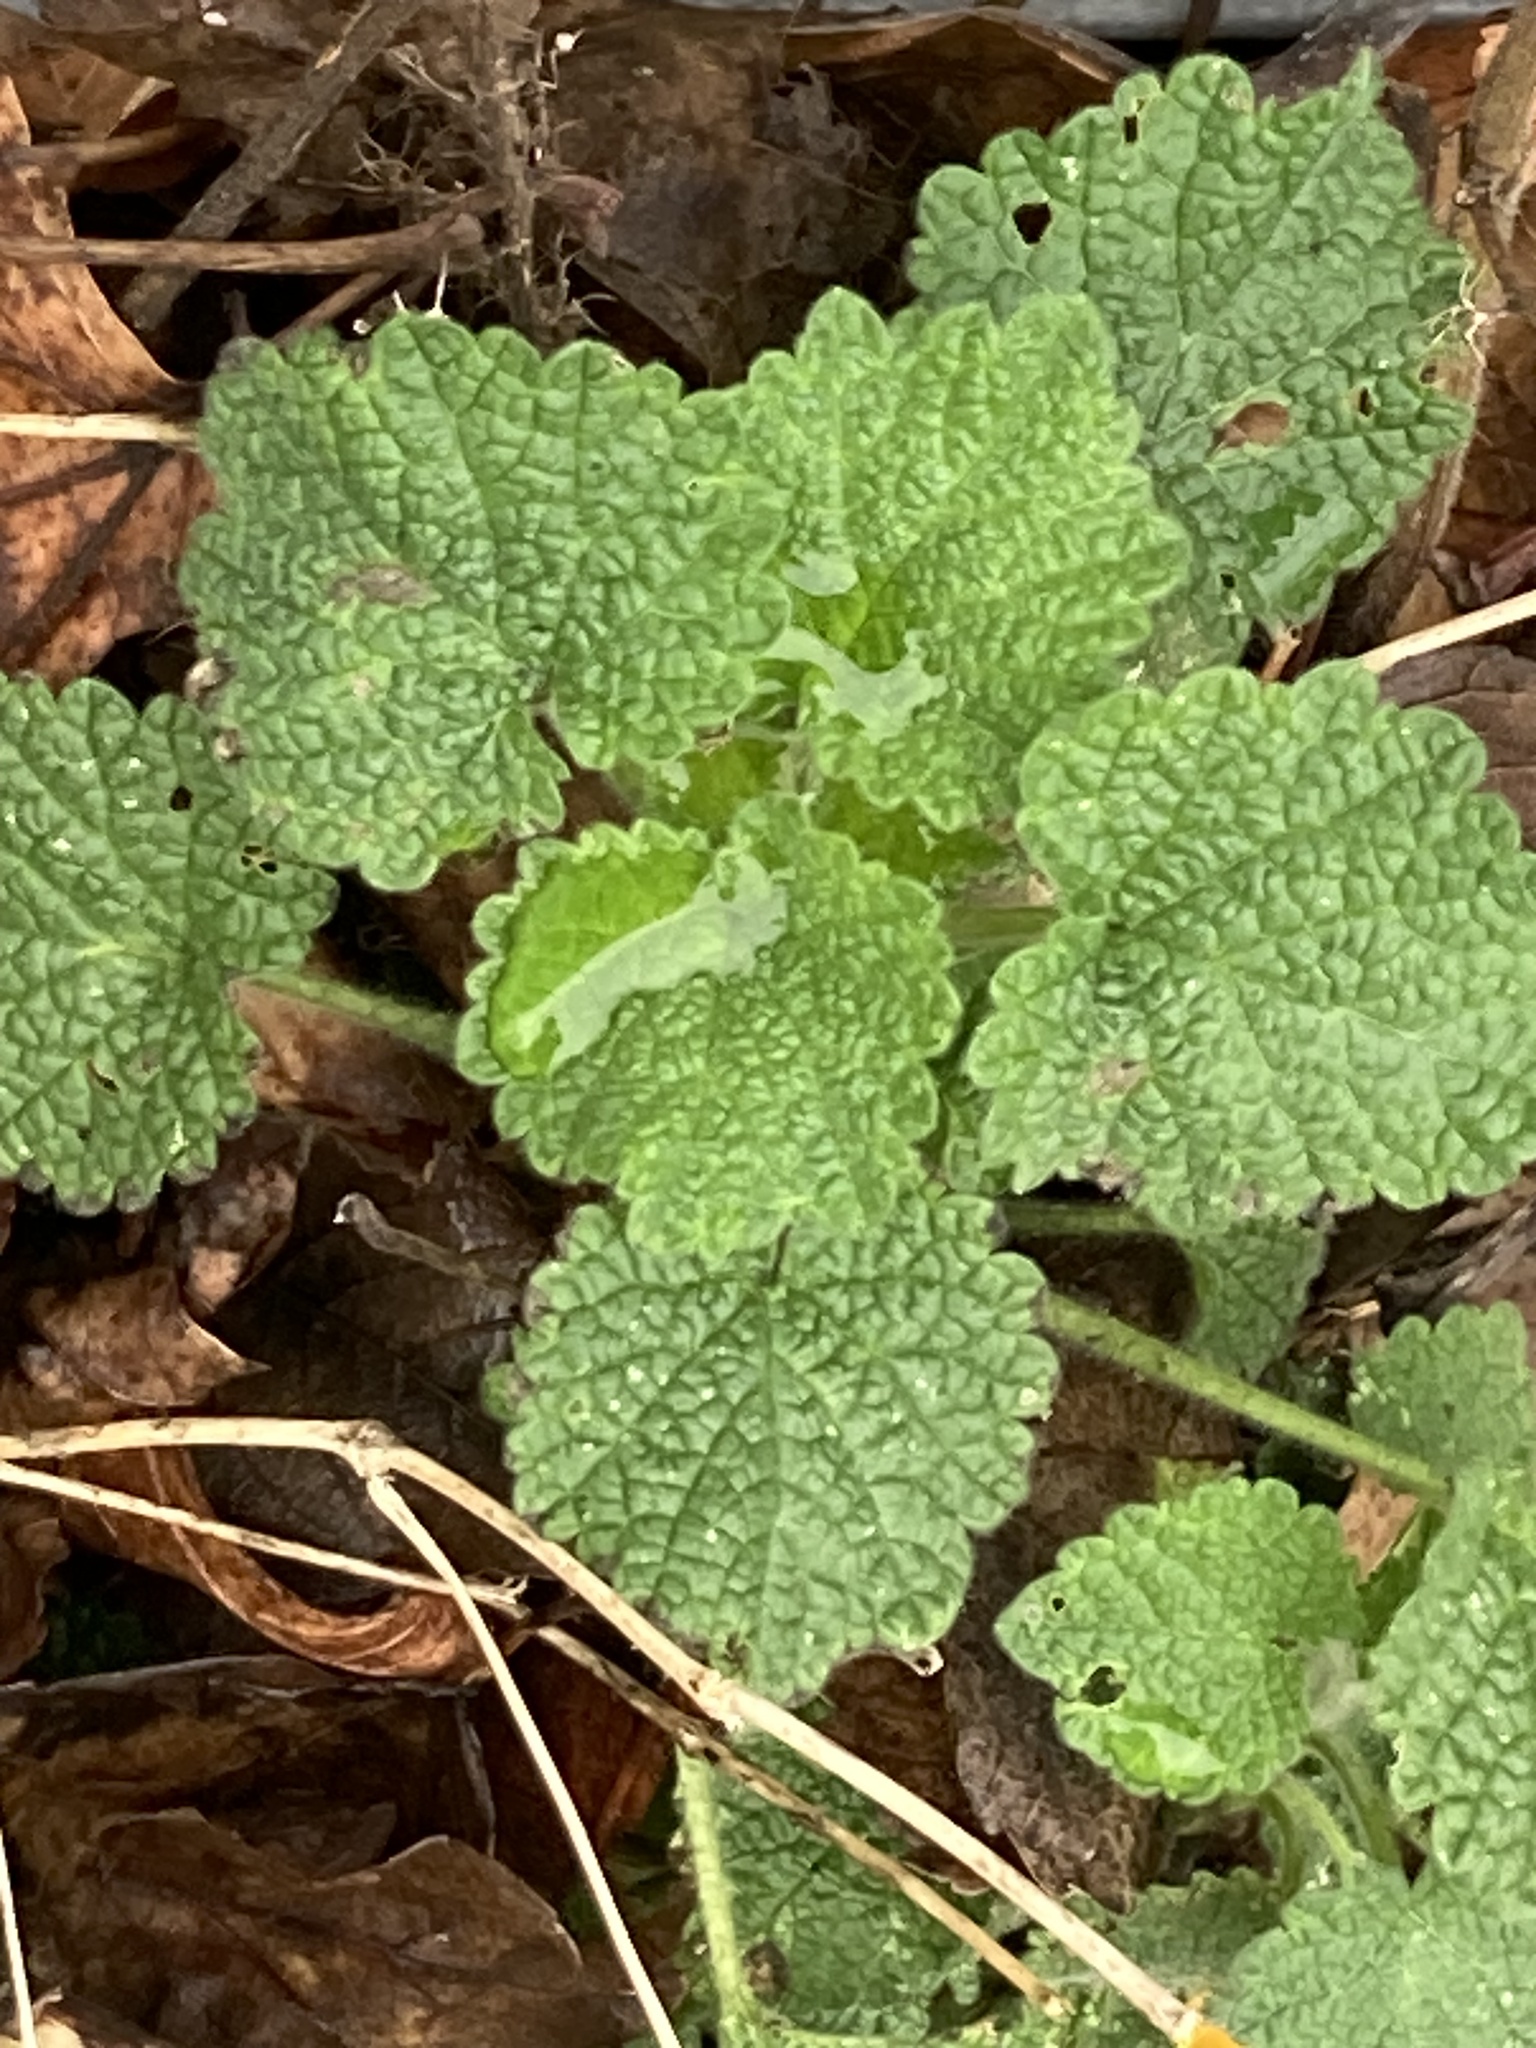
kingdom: Plantae
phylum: Tracheophyta
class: Magnoliopsida
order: Lamiales
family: Lamiaceae
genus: Ballota
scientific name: Ballota nigra
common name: Black horehound
